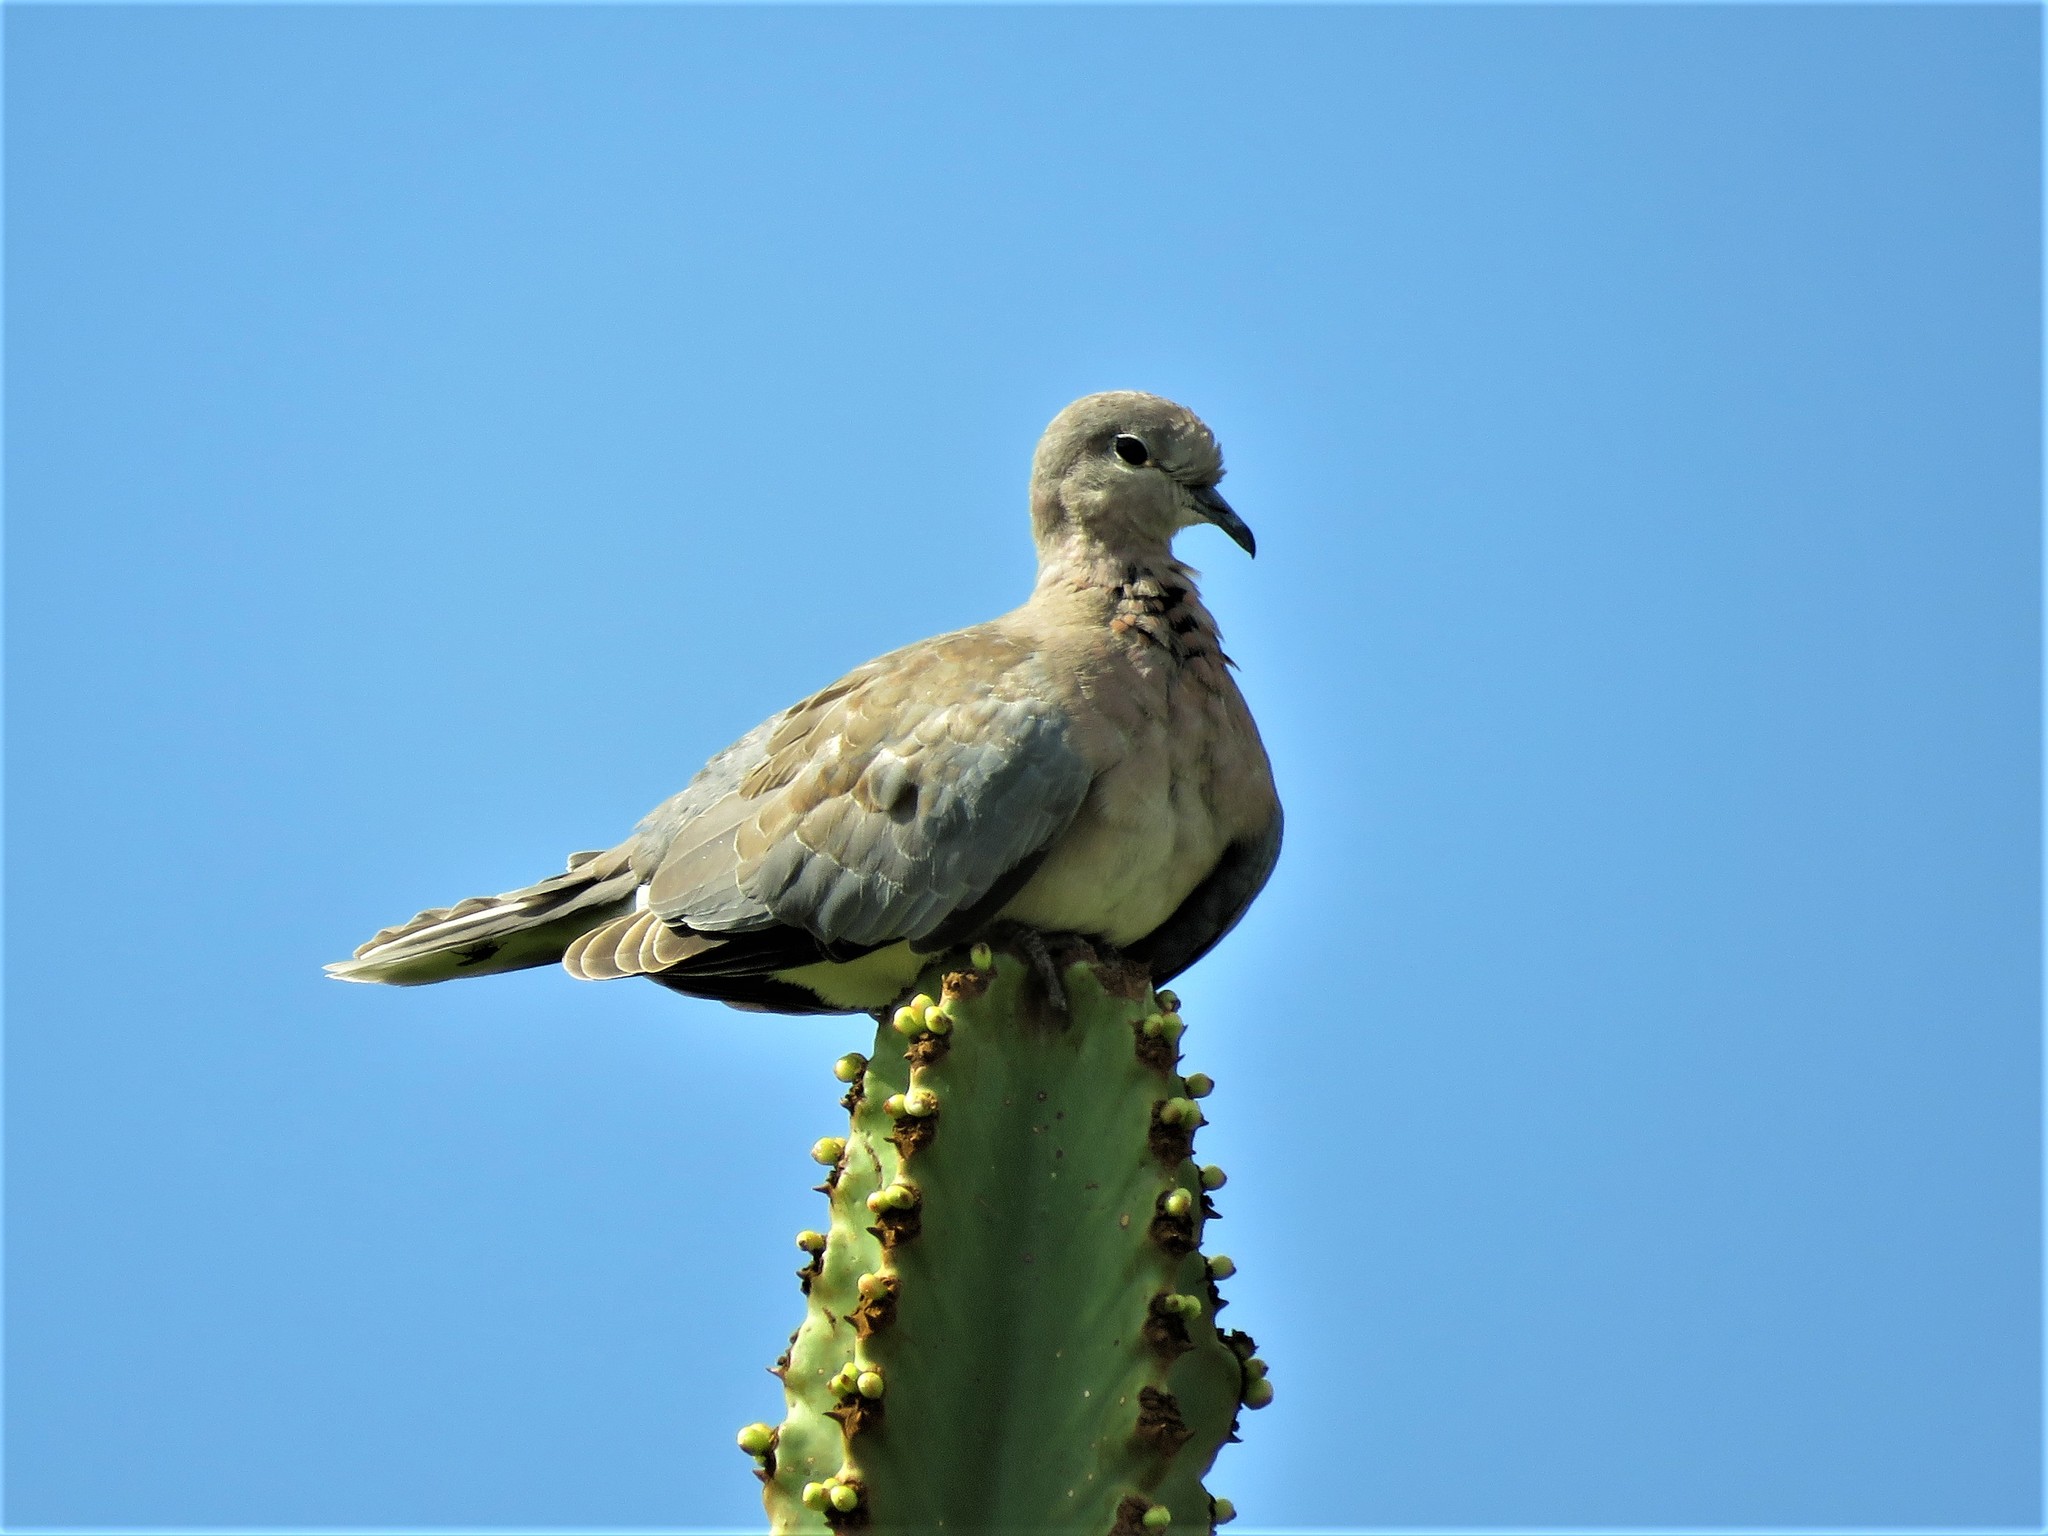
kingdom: Animalia
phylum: Chordata
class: Aves
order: Columbiformes
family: Columbidae
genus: Spilopelia
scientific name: Spilopelia senegalensis
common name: Laughing dove
